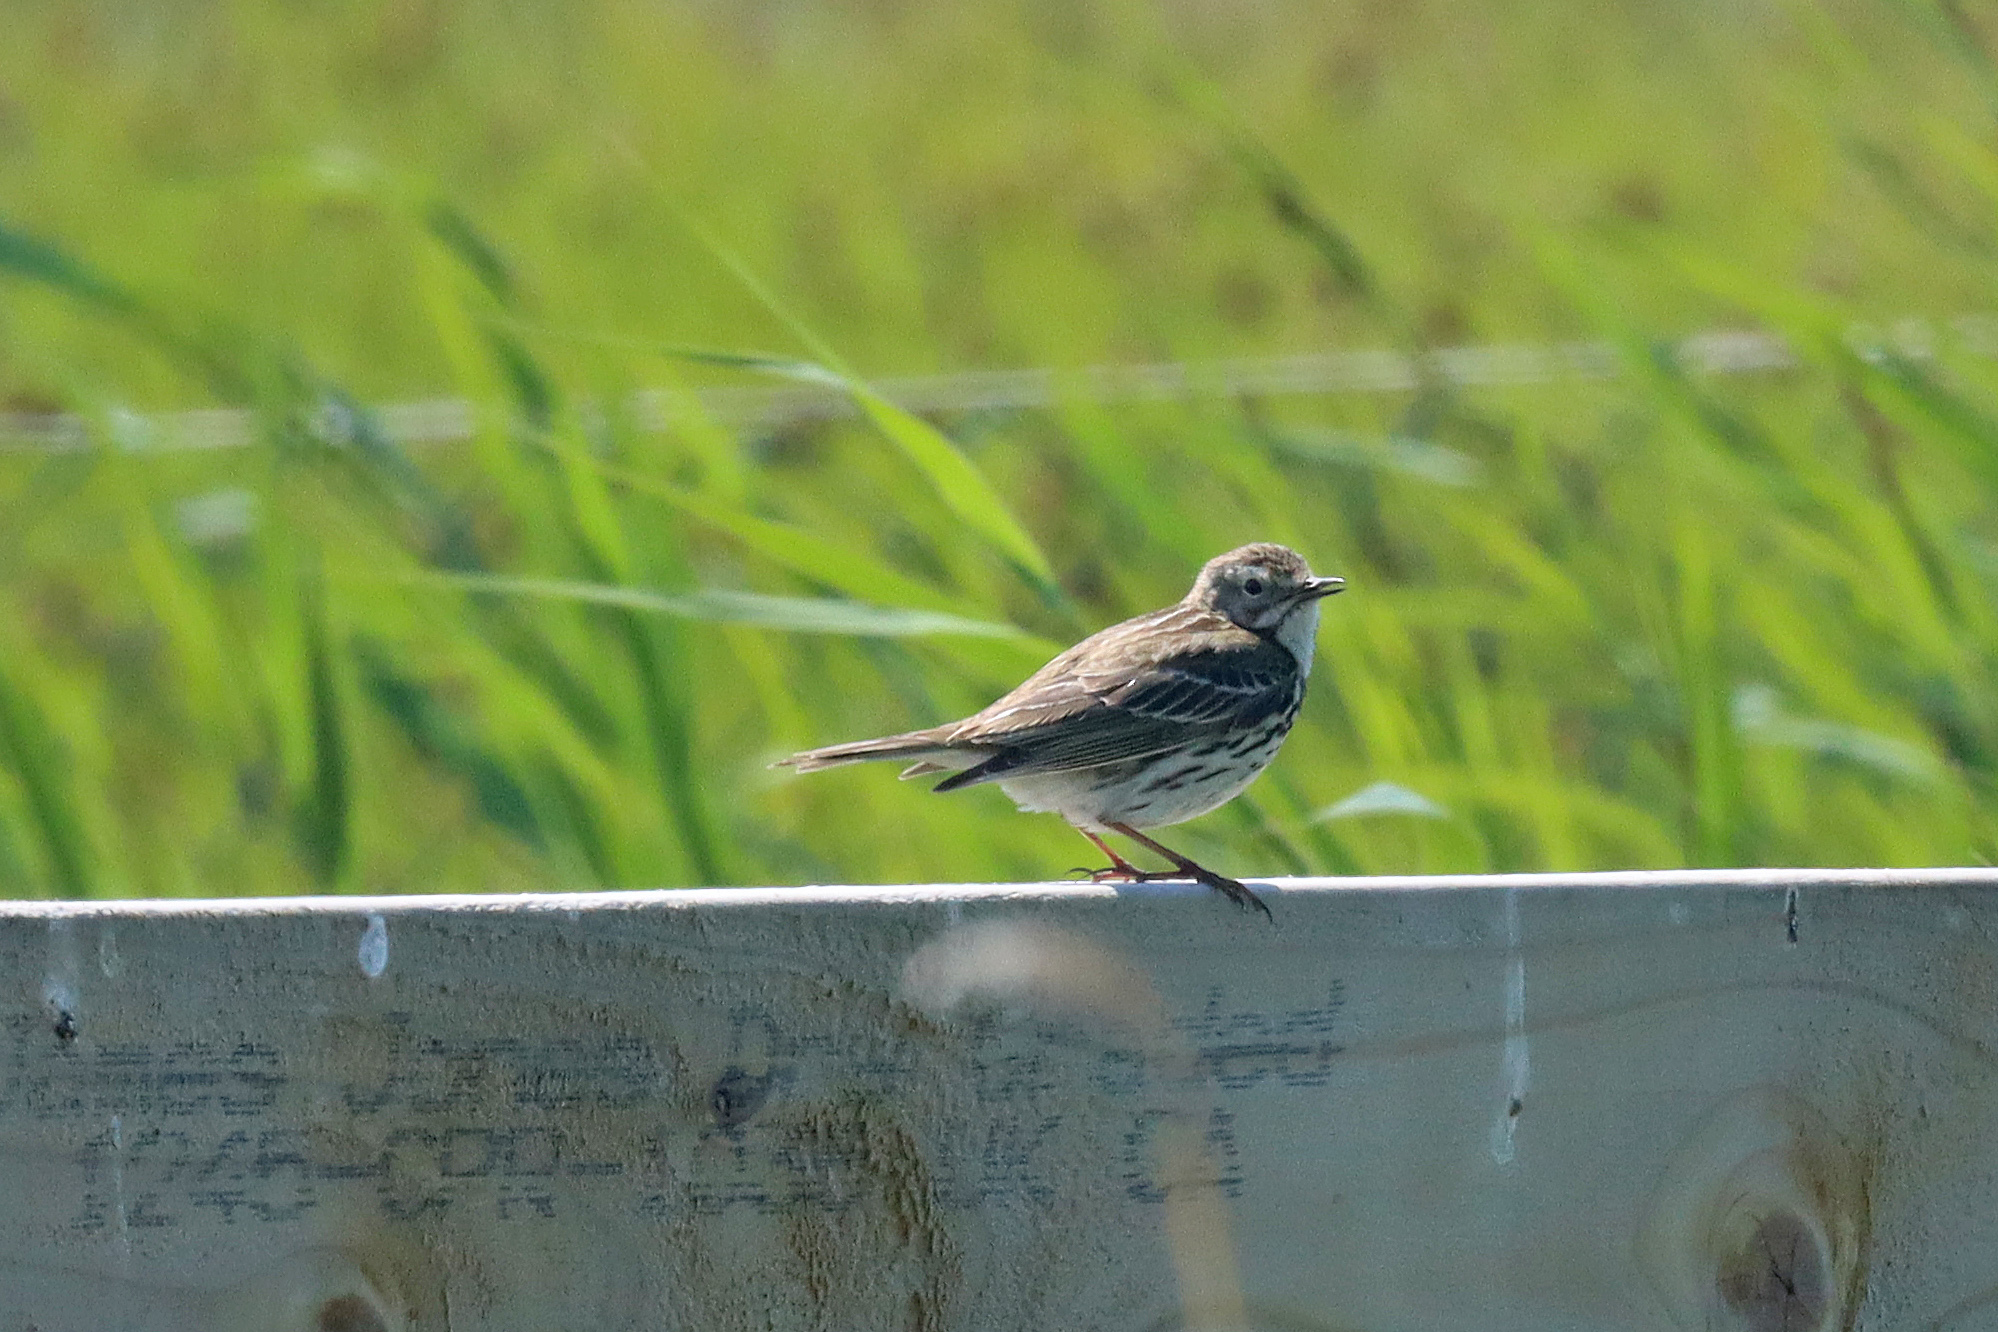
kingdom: Animalia
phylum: Chordata
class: Aves
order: Passeriformes
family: Motacillidae
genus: Anthus
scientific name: Anthus pratensis
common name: Meadow pipit
